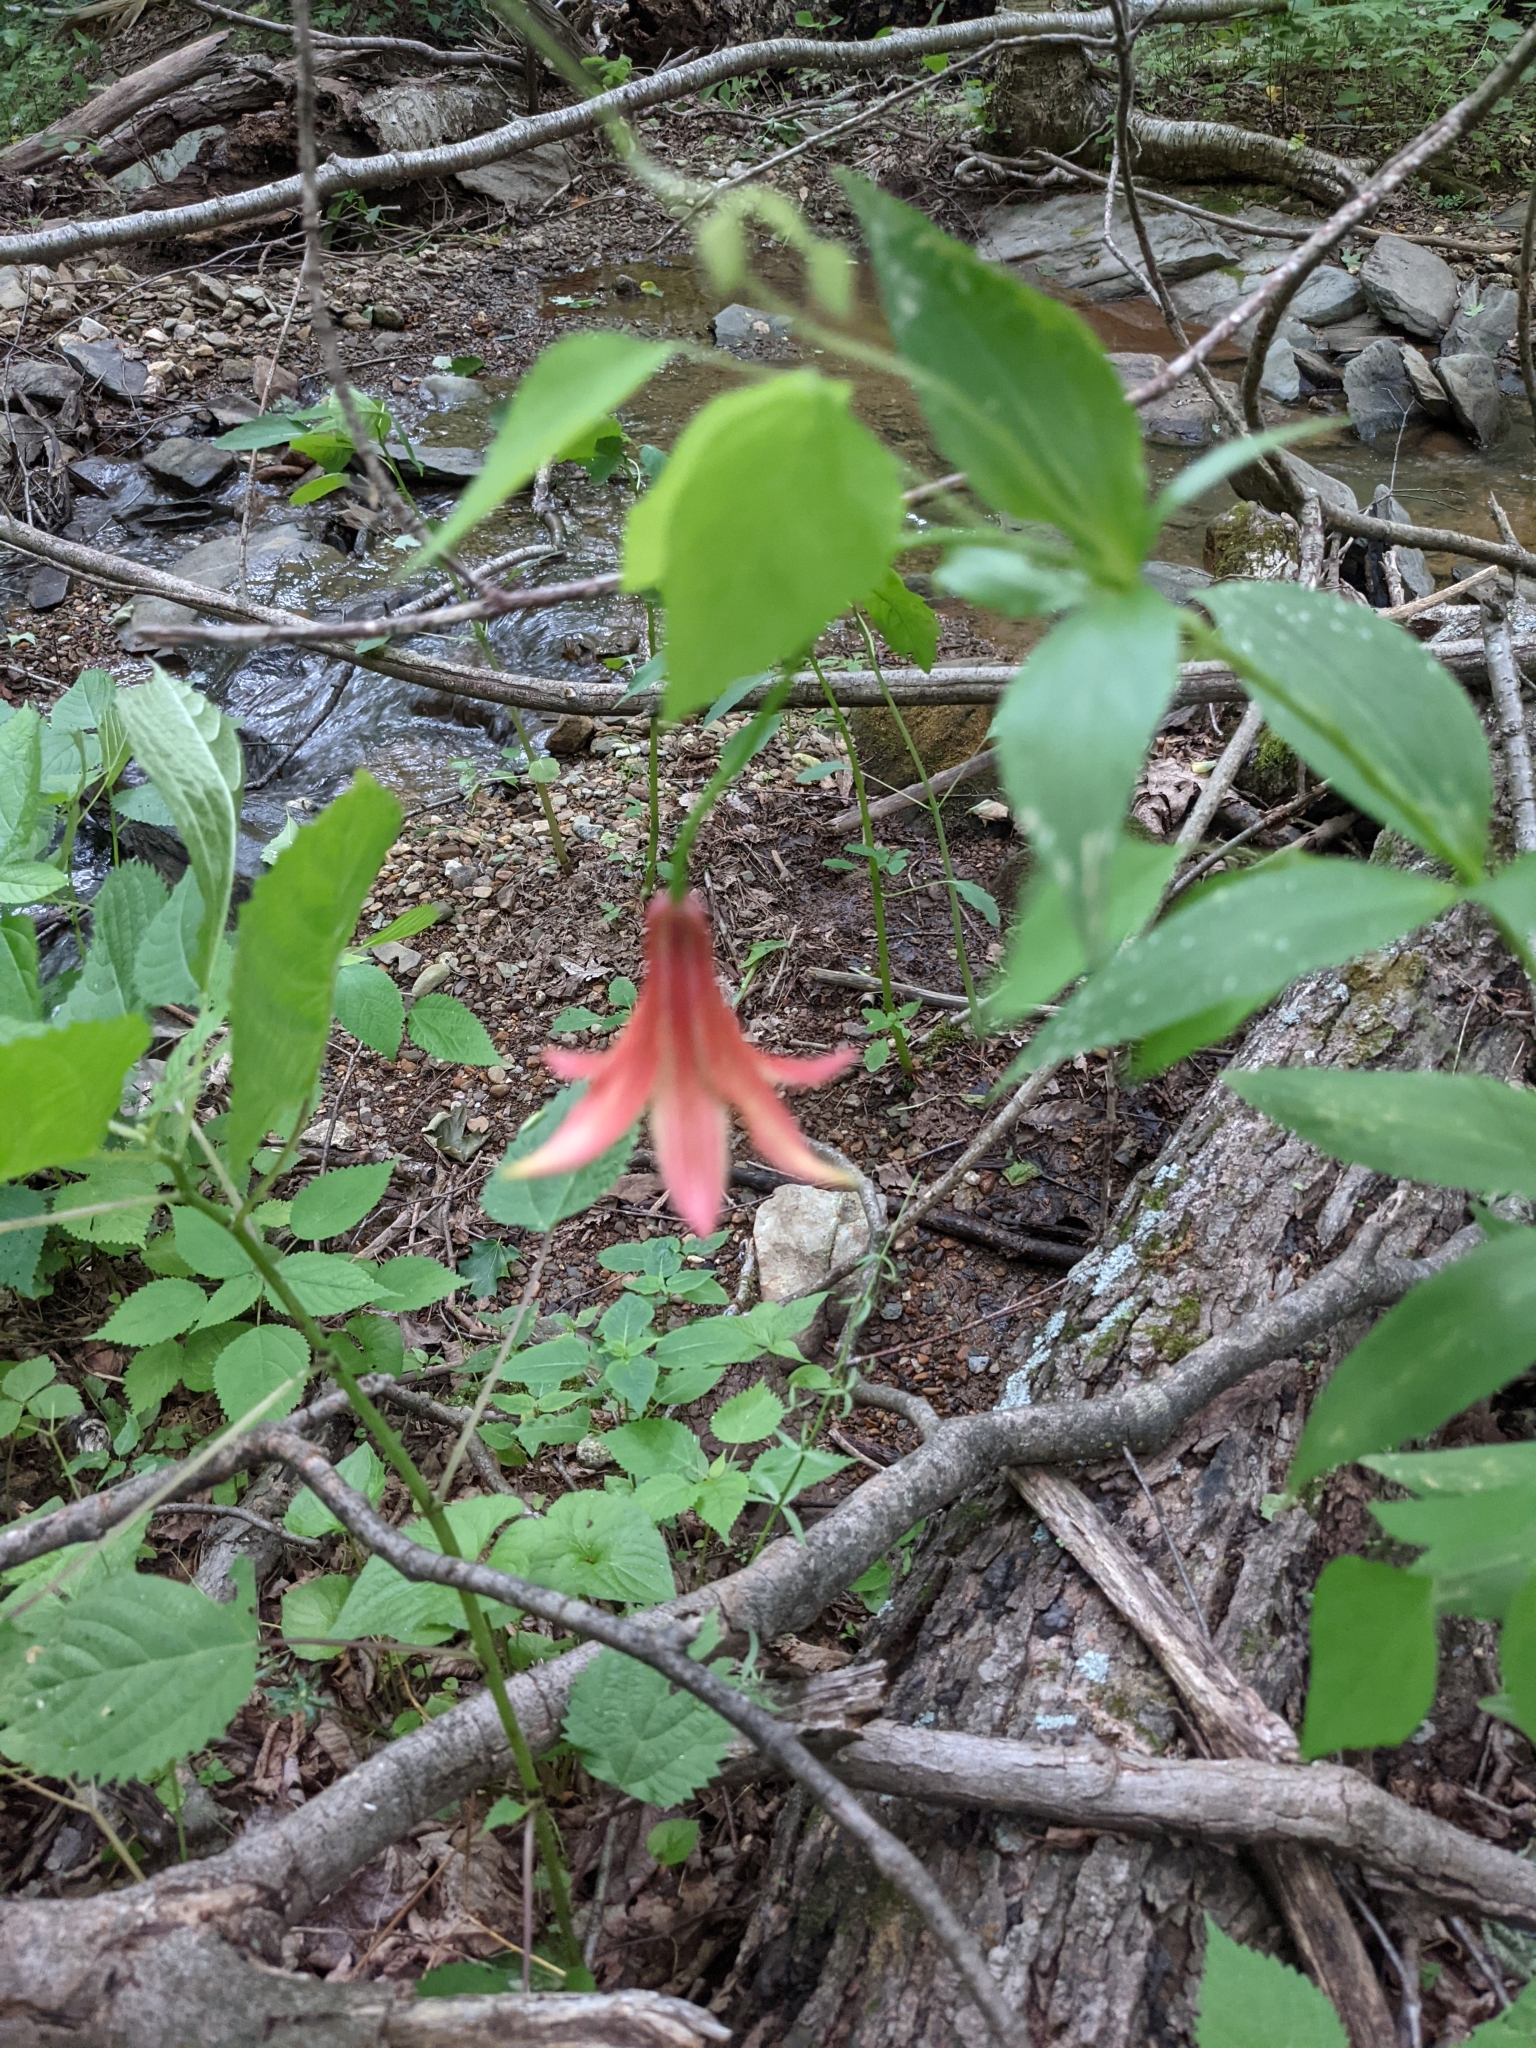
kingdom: Plantae
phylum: Tracheophyta
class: Liliopsida
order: Liliales
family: Liliaceae
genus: Lilium
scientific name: Lilium canadense
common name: Canada lily
